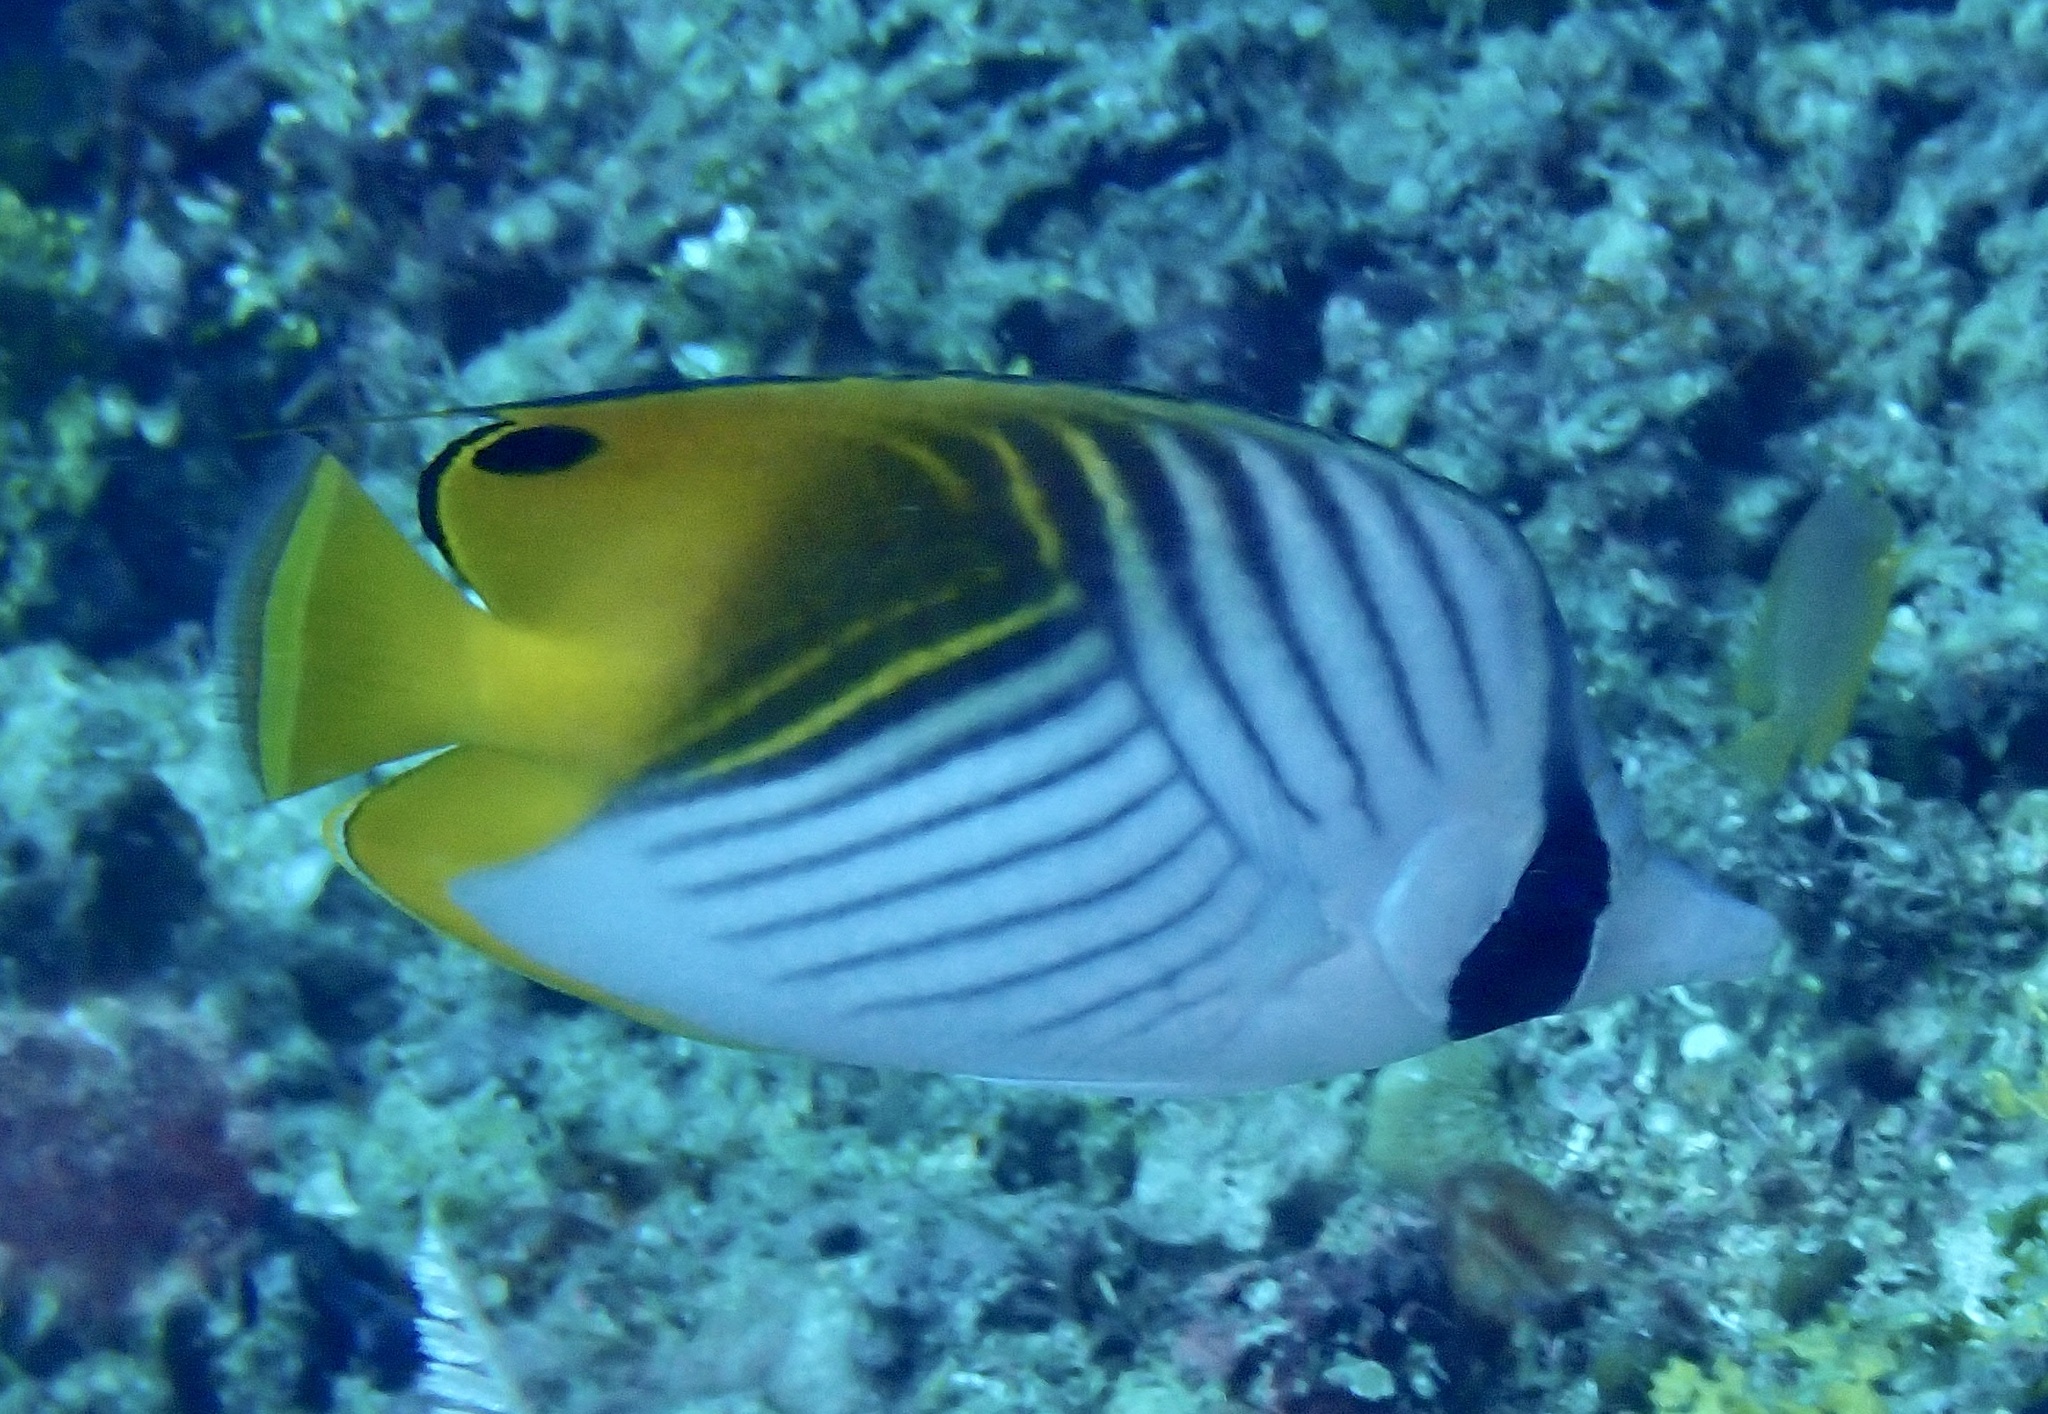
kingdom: Animalia
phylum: Chordata
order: Perciformes
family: Chaetodontidae
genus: Chaetodon
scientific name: Chaetodon auriga
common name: Threadfin butterflyfish
